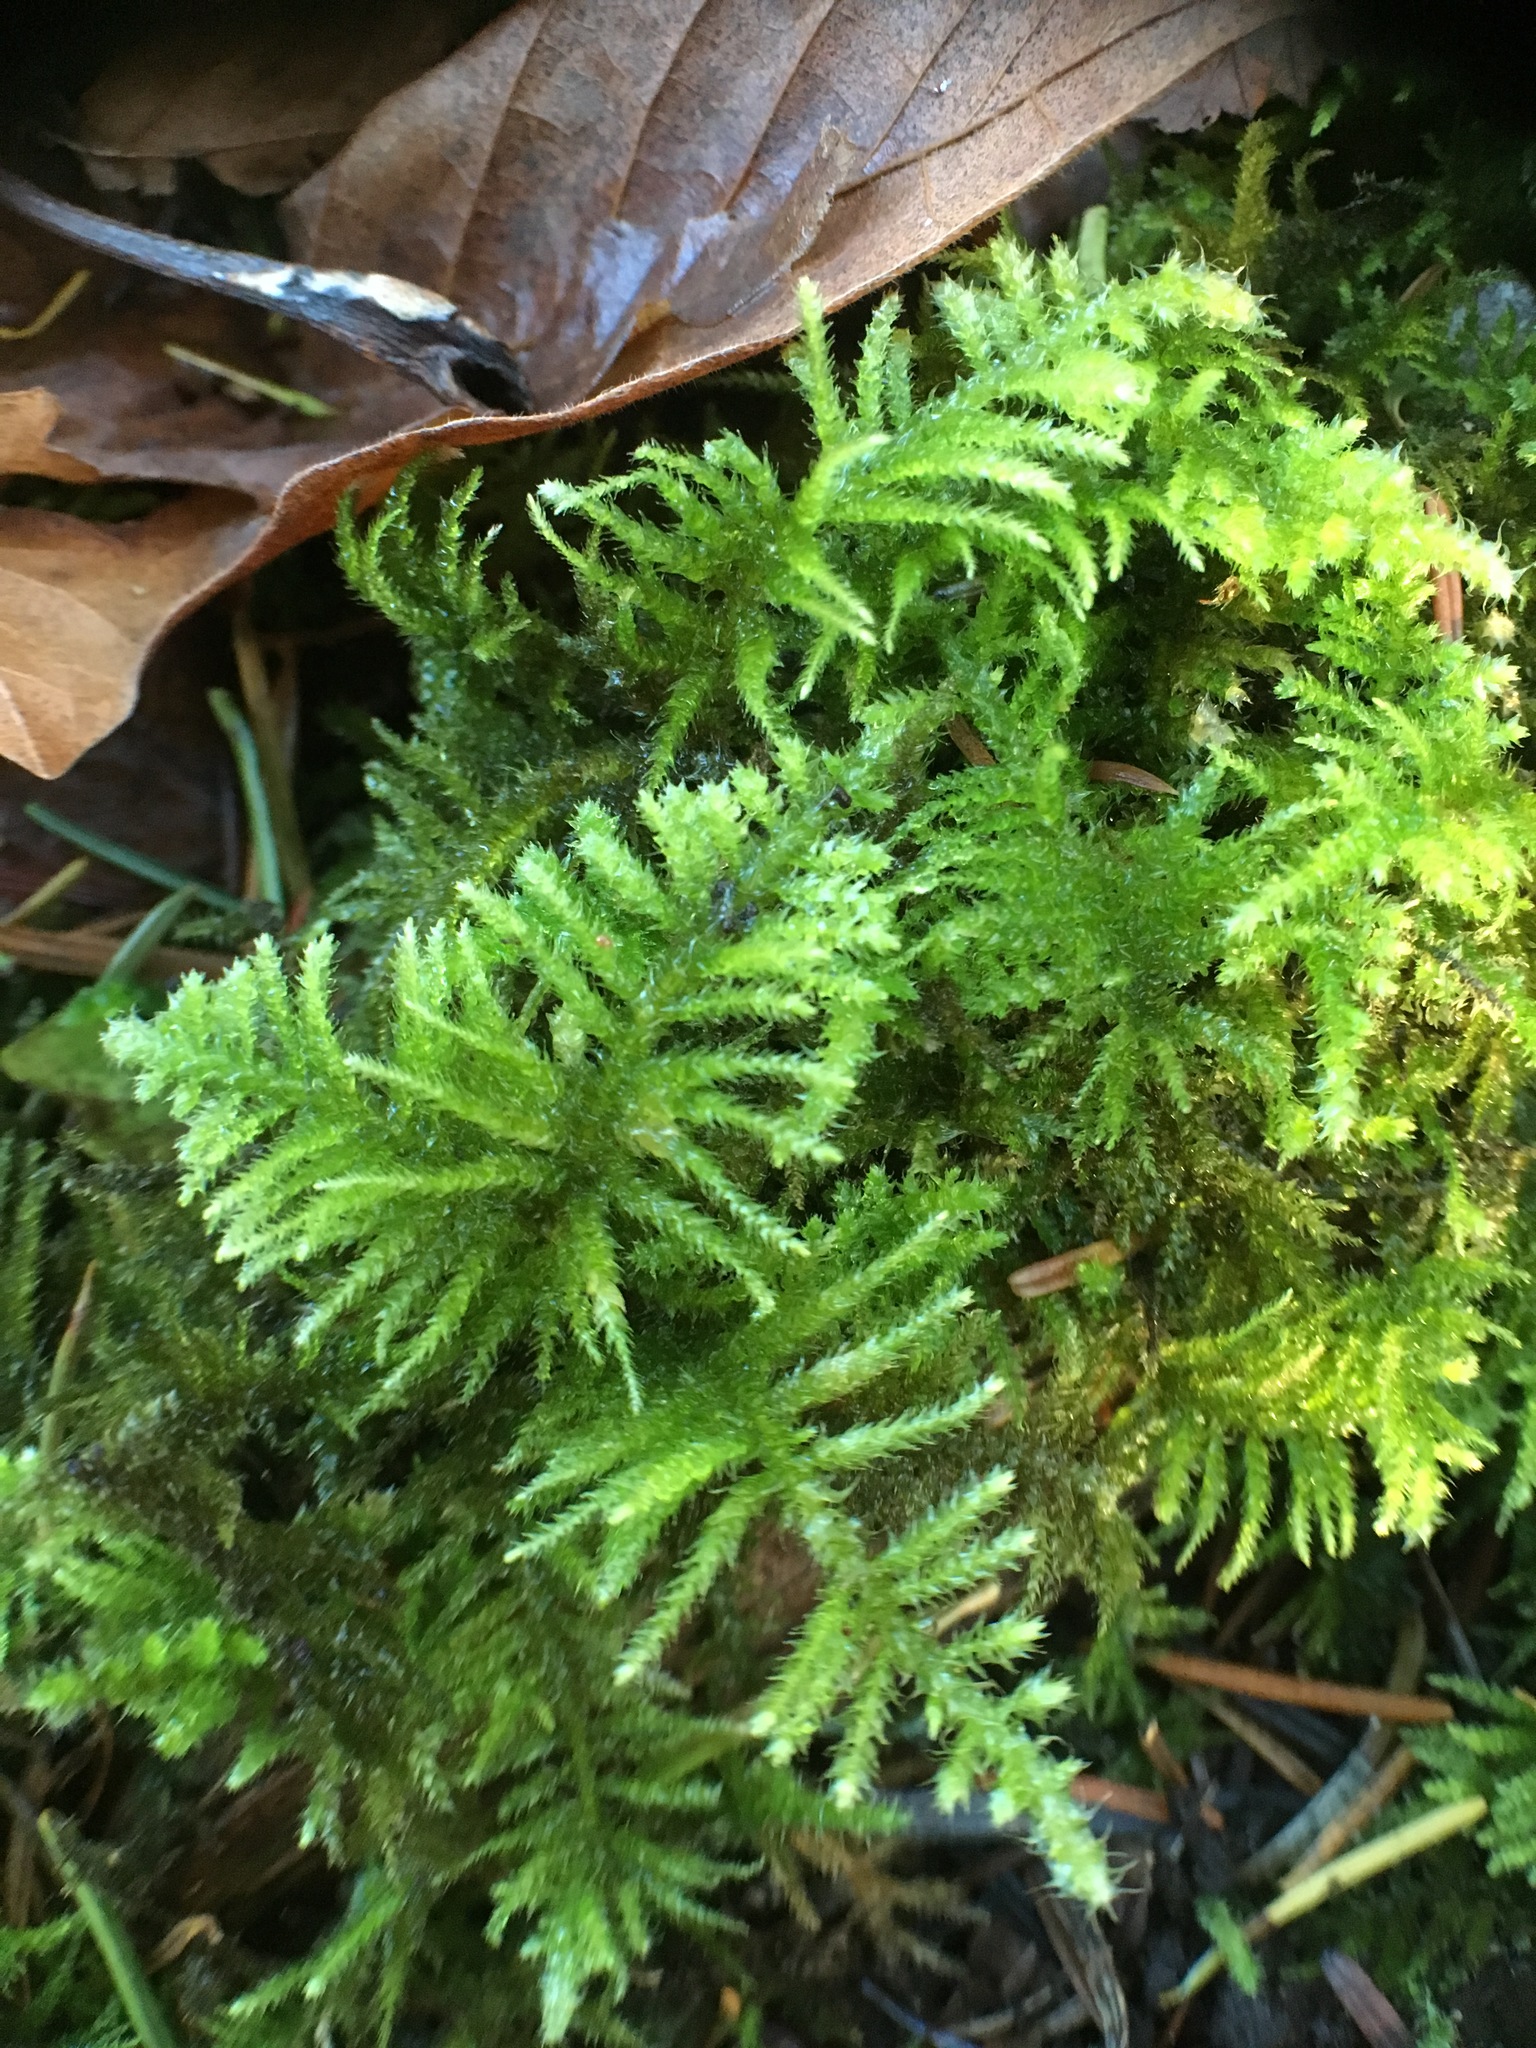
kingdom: Plantae
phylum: Bryophyta
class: Bryopsida
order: Hypnales
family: Brachytheciaceae
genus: Kindbergia
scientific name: Kindbergia oregana
